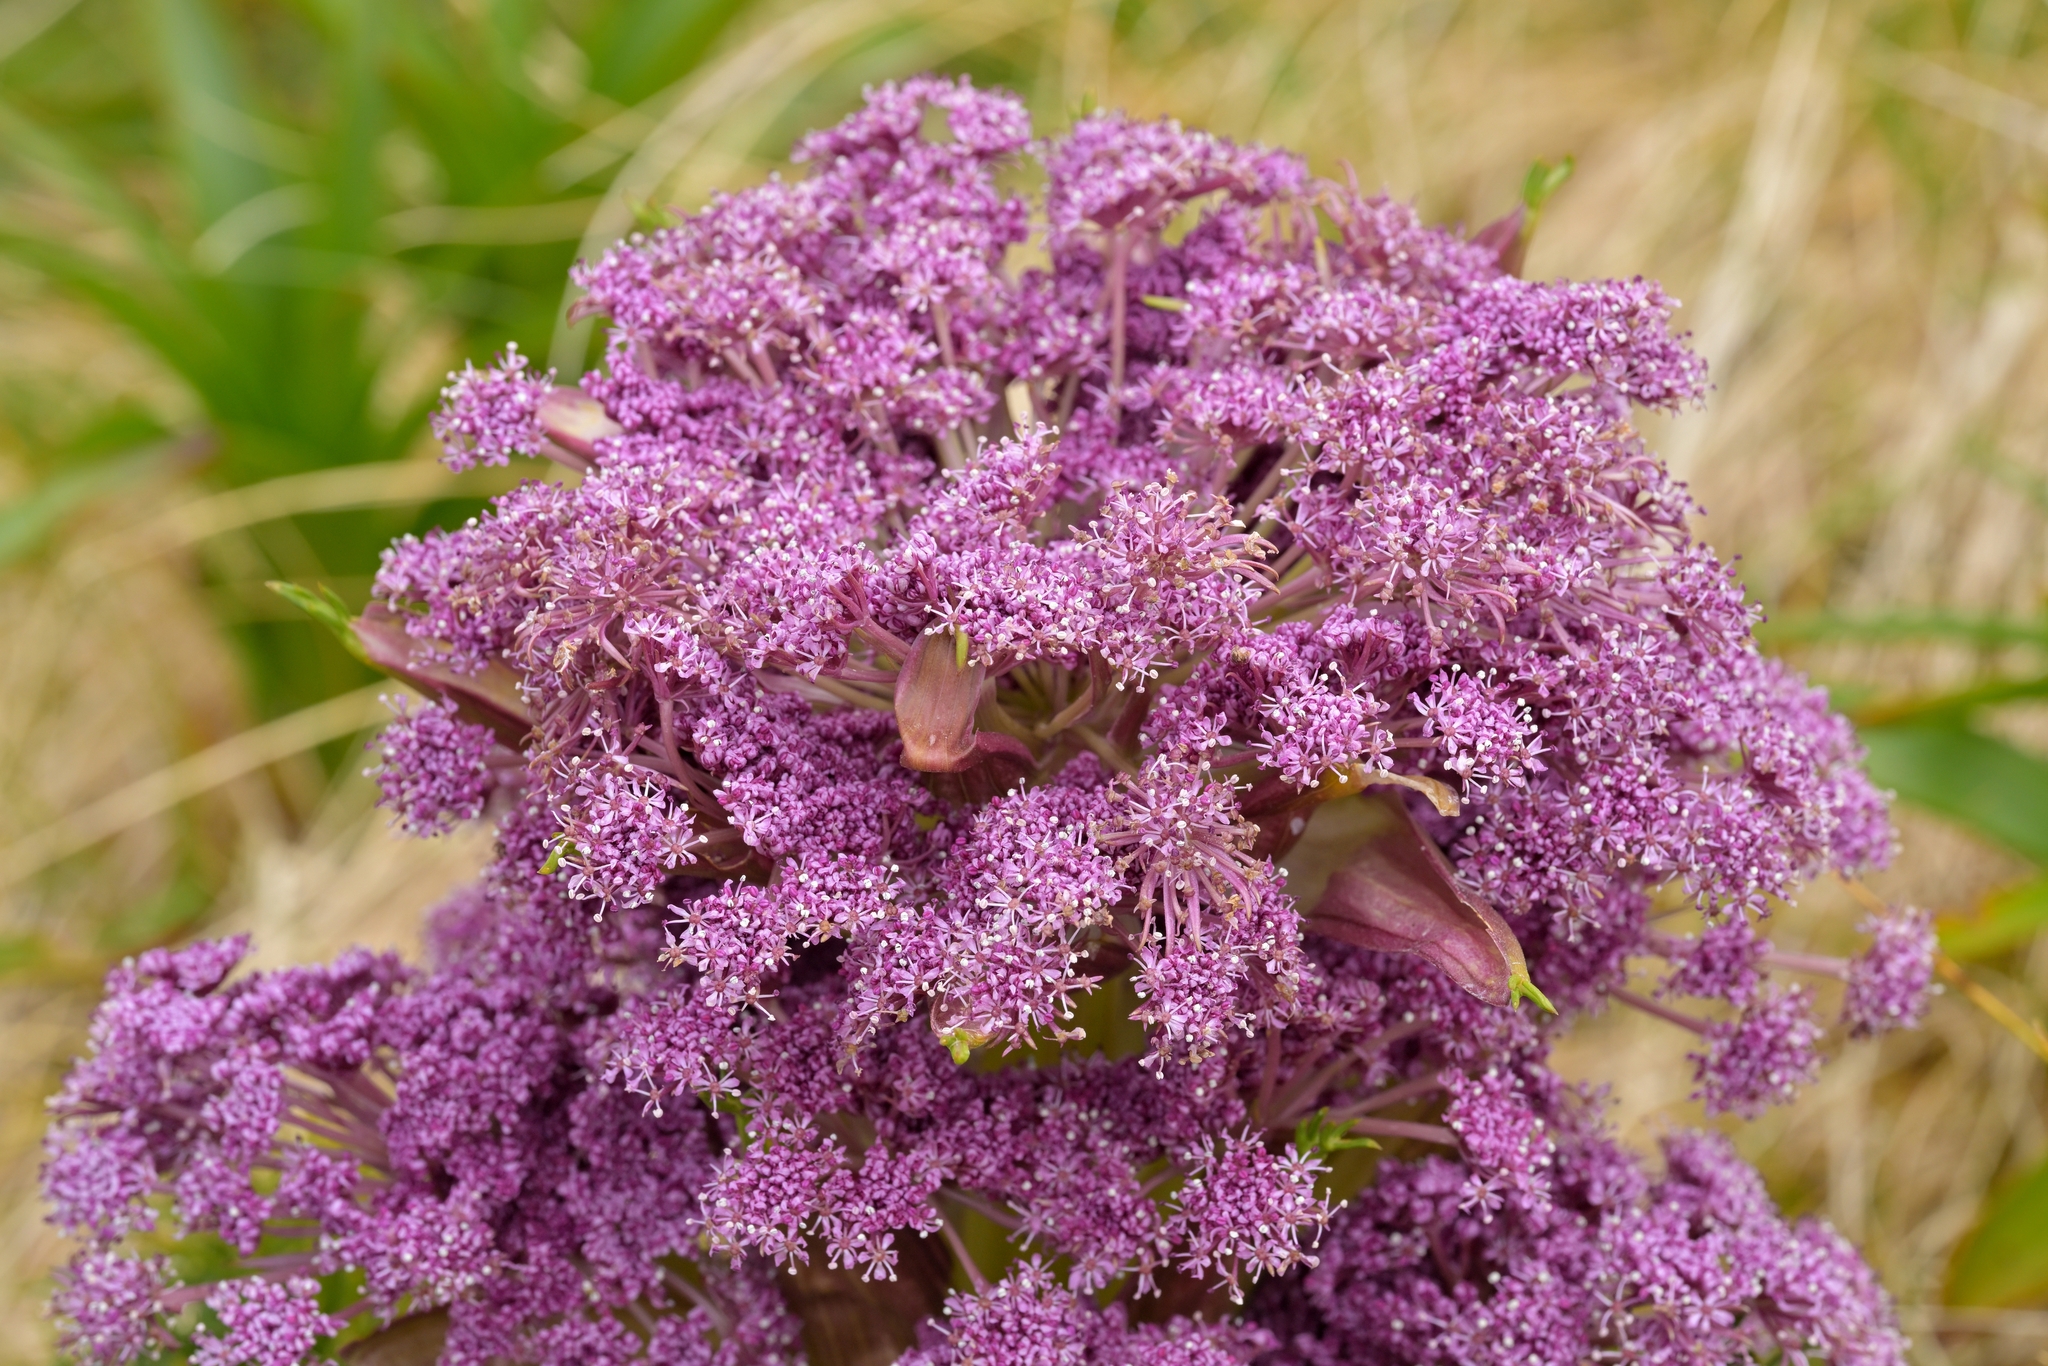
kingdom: Plantae
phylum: Tracheophyta
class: Magnoliopsida
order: Apiales
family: Apiaceae
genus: Anisotome
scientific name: Anisotome antipoda
